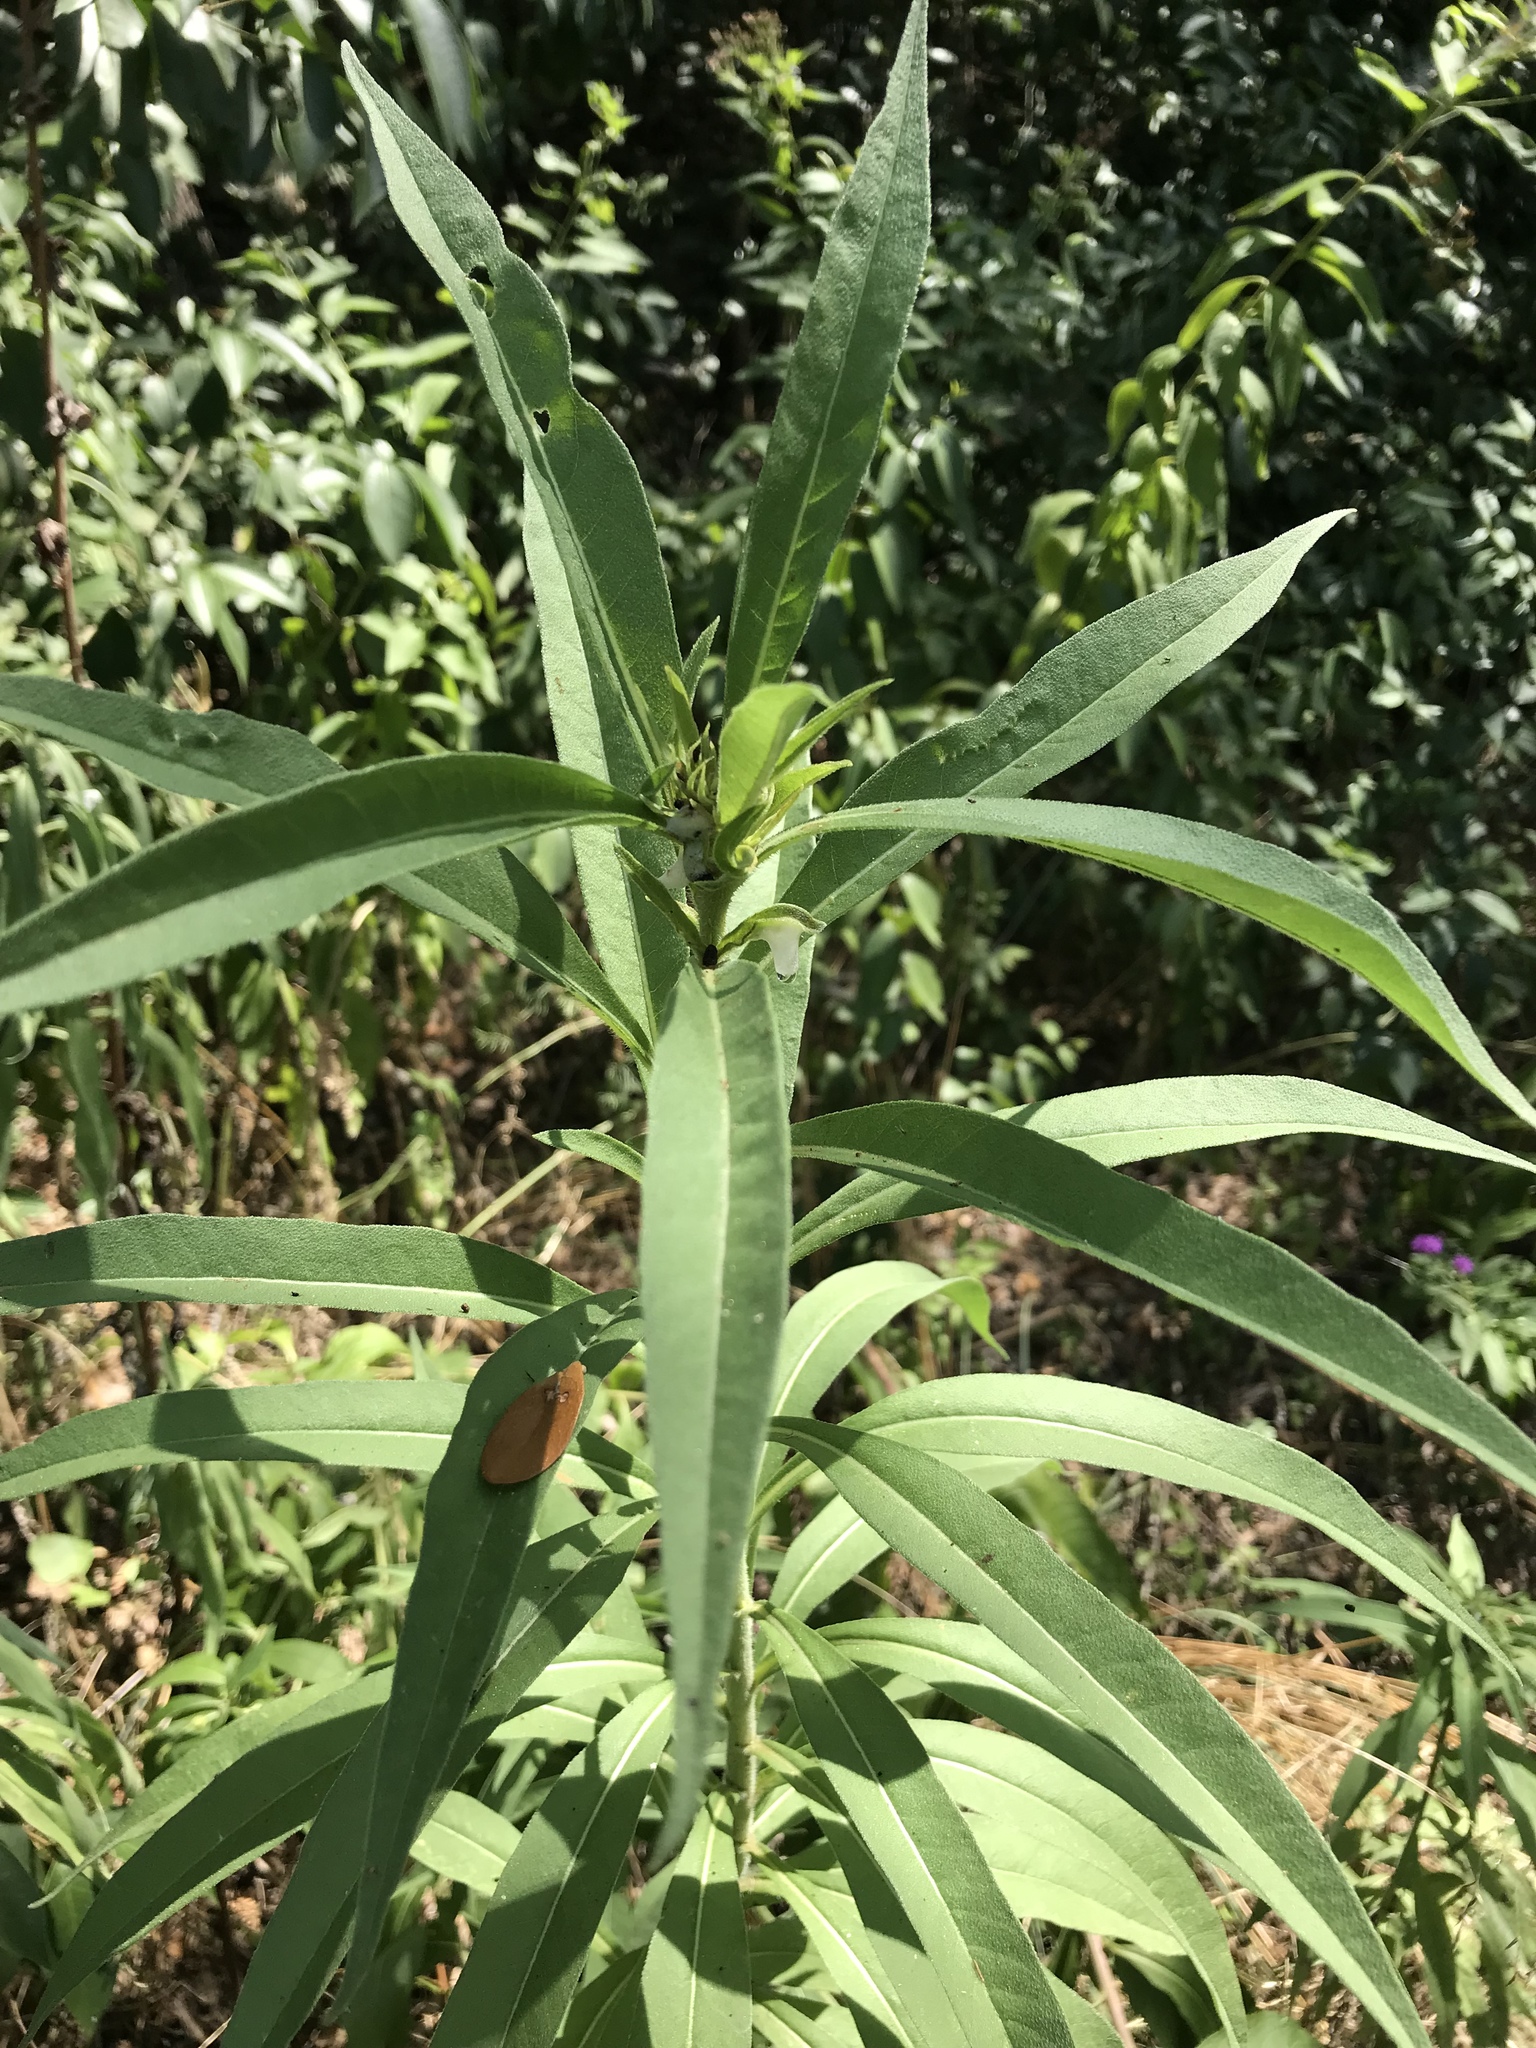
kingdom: Plantae
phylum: Tracheophyta
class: Magnoliopsida
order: Asterales
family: Asteraceae
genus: Helianthus
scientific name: Helianthus maximiliani
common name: Maximilian's sunflower
